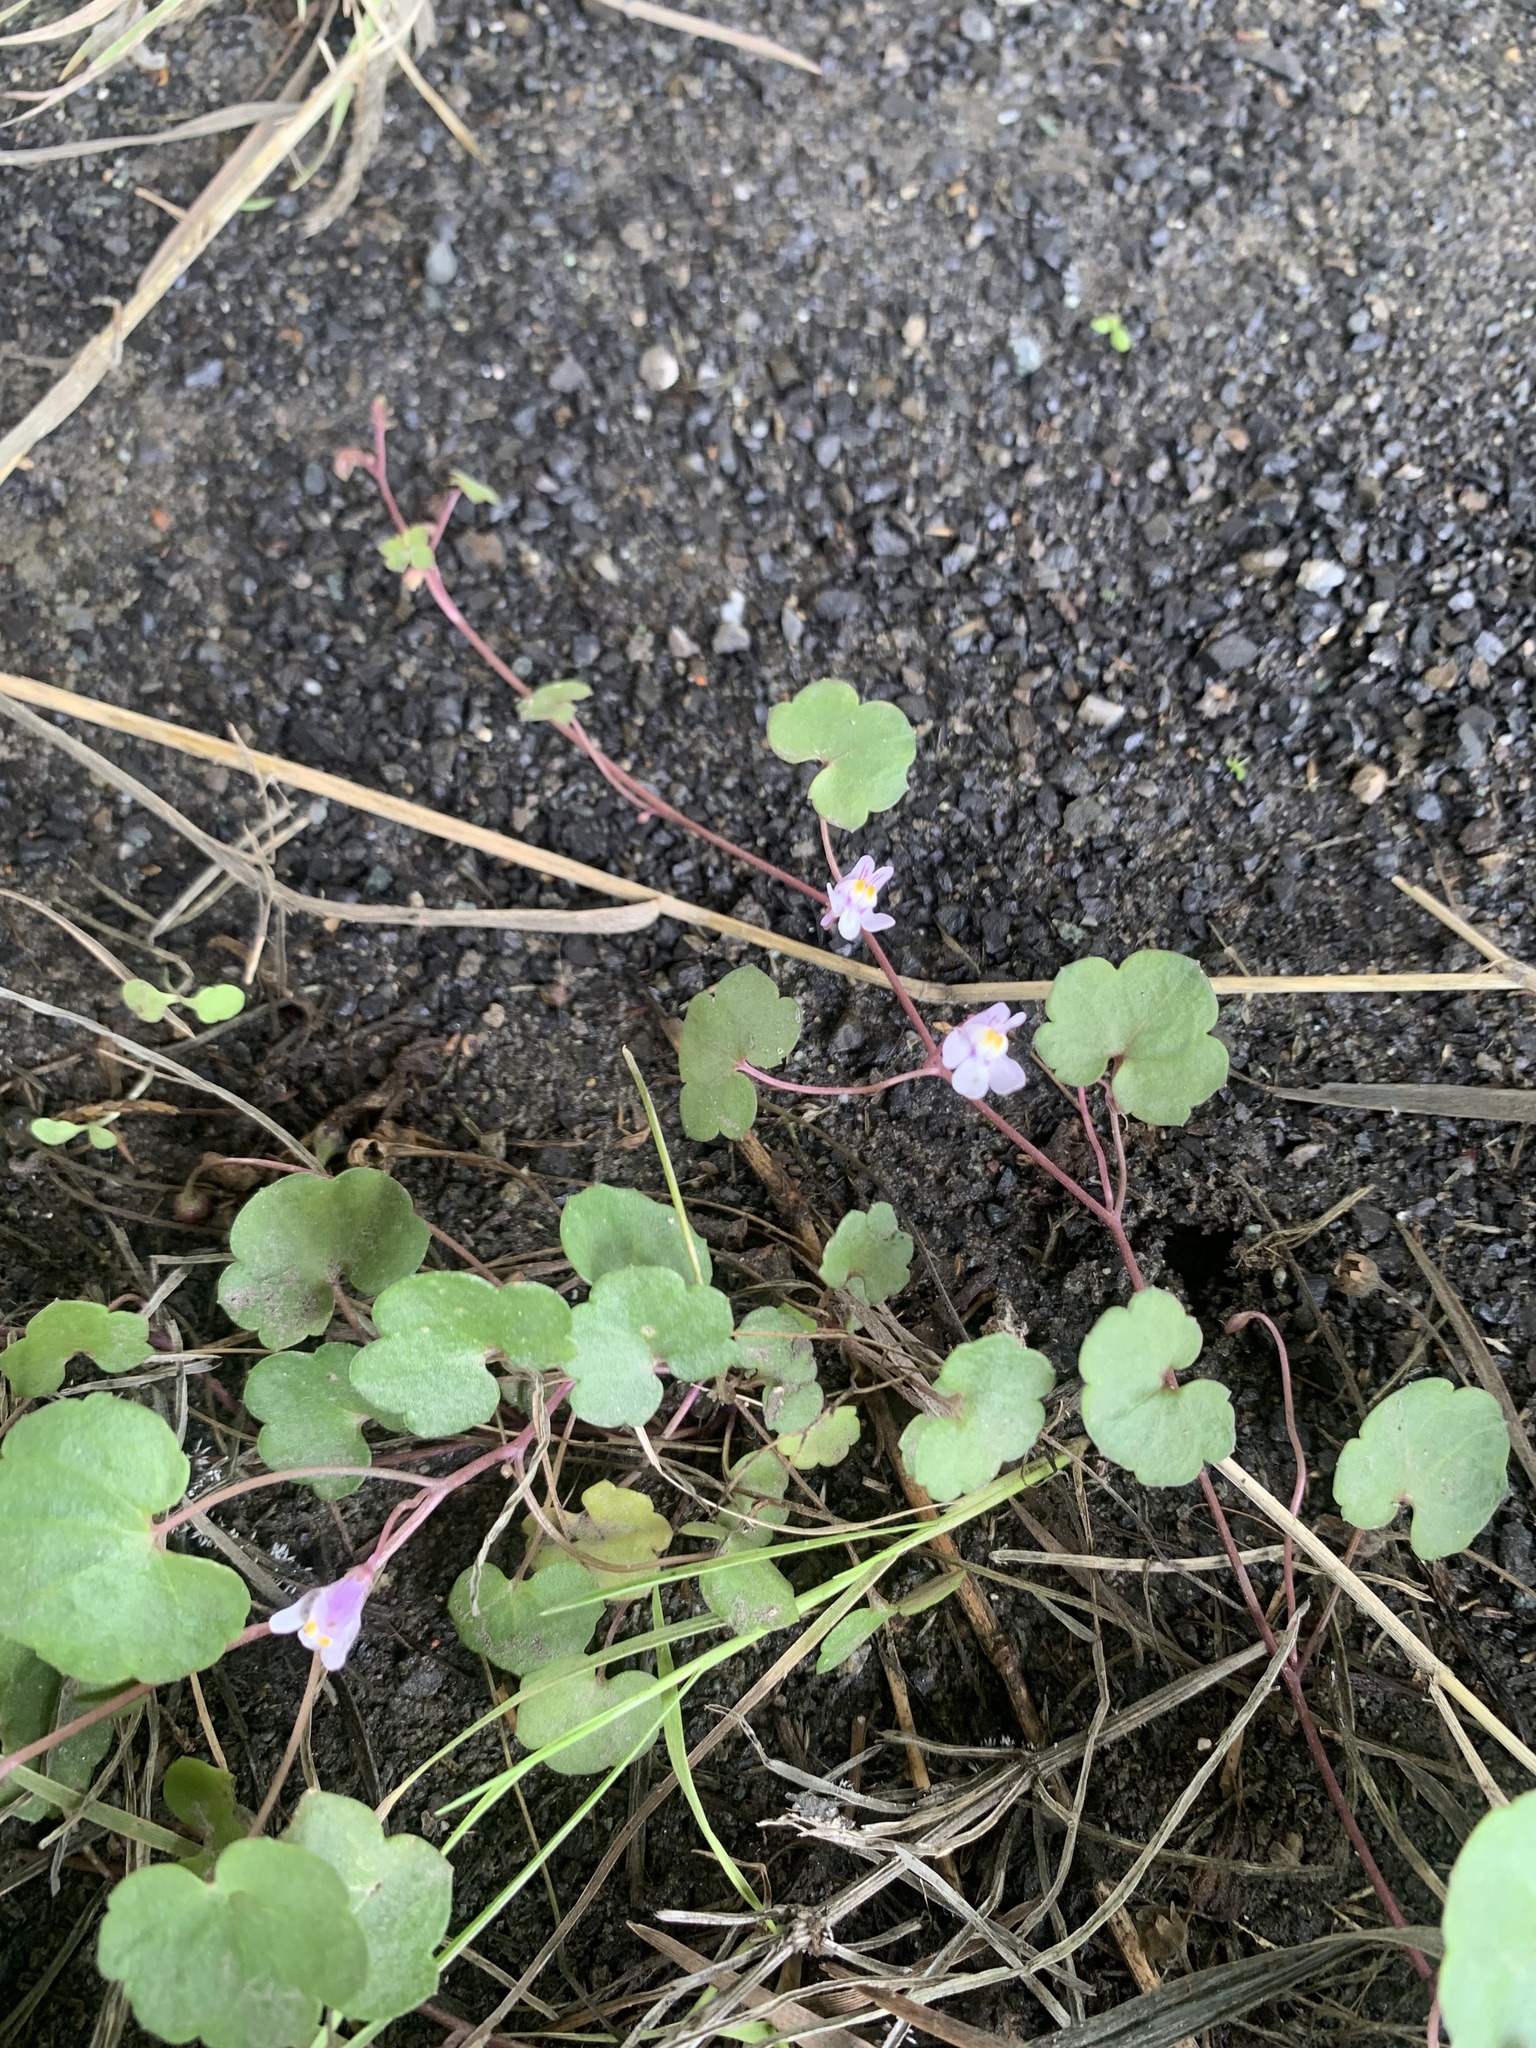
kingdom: Plantae
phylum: Tracheophyta
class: Magnoliopsida
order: Lamiales
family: Plantaginaceae
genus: Cymbalaria
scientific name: Cymbalaria muralis
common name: Ivy-leaved toadflax
